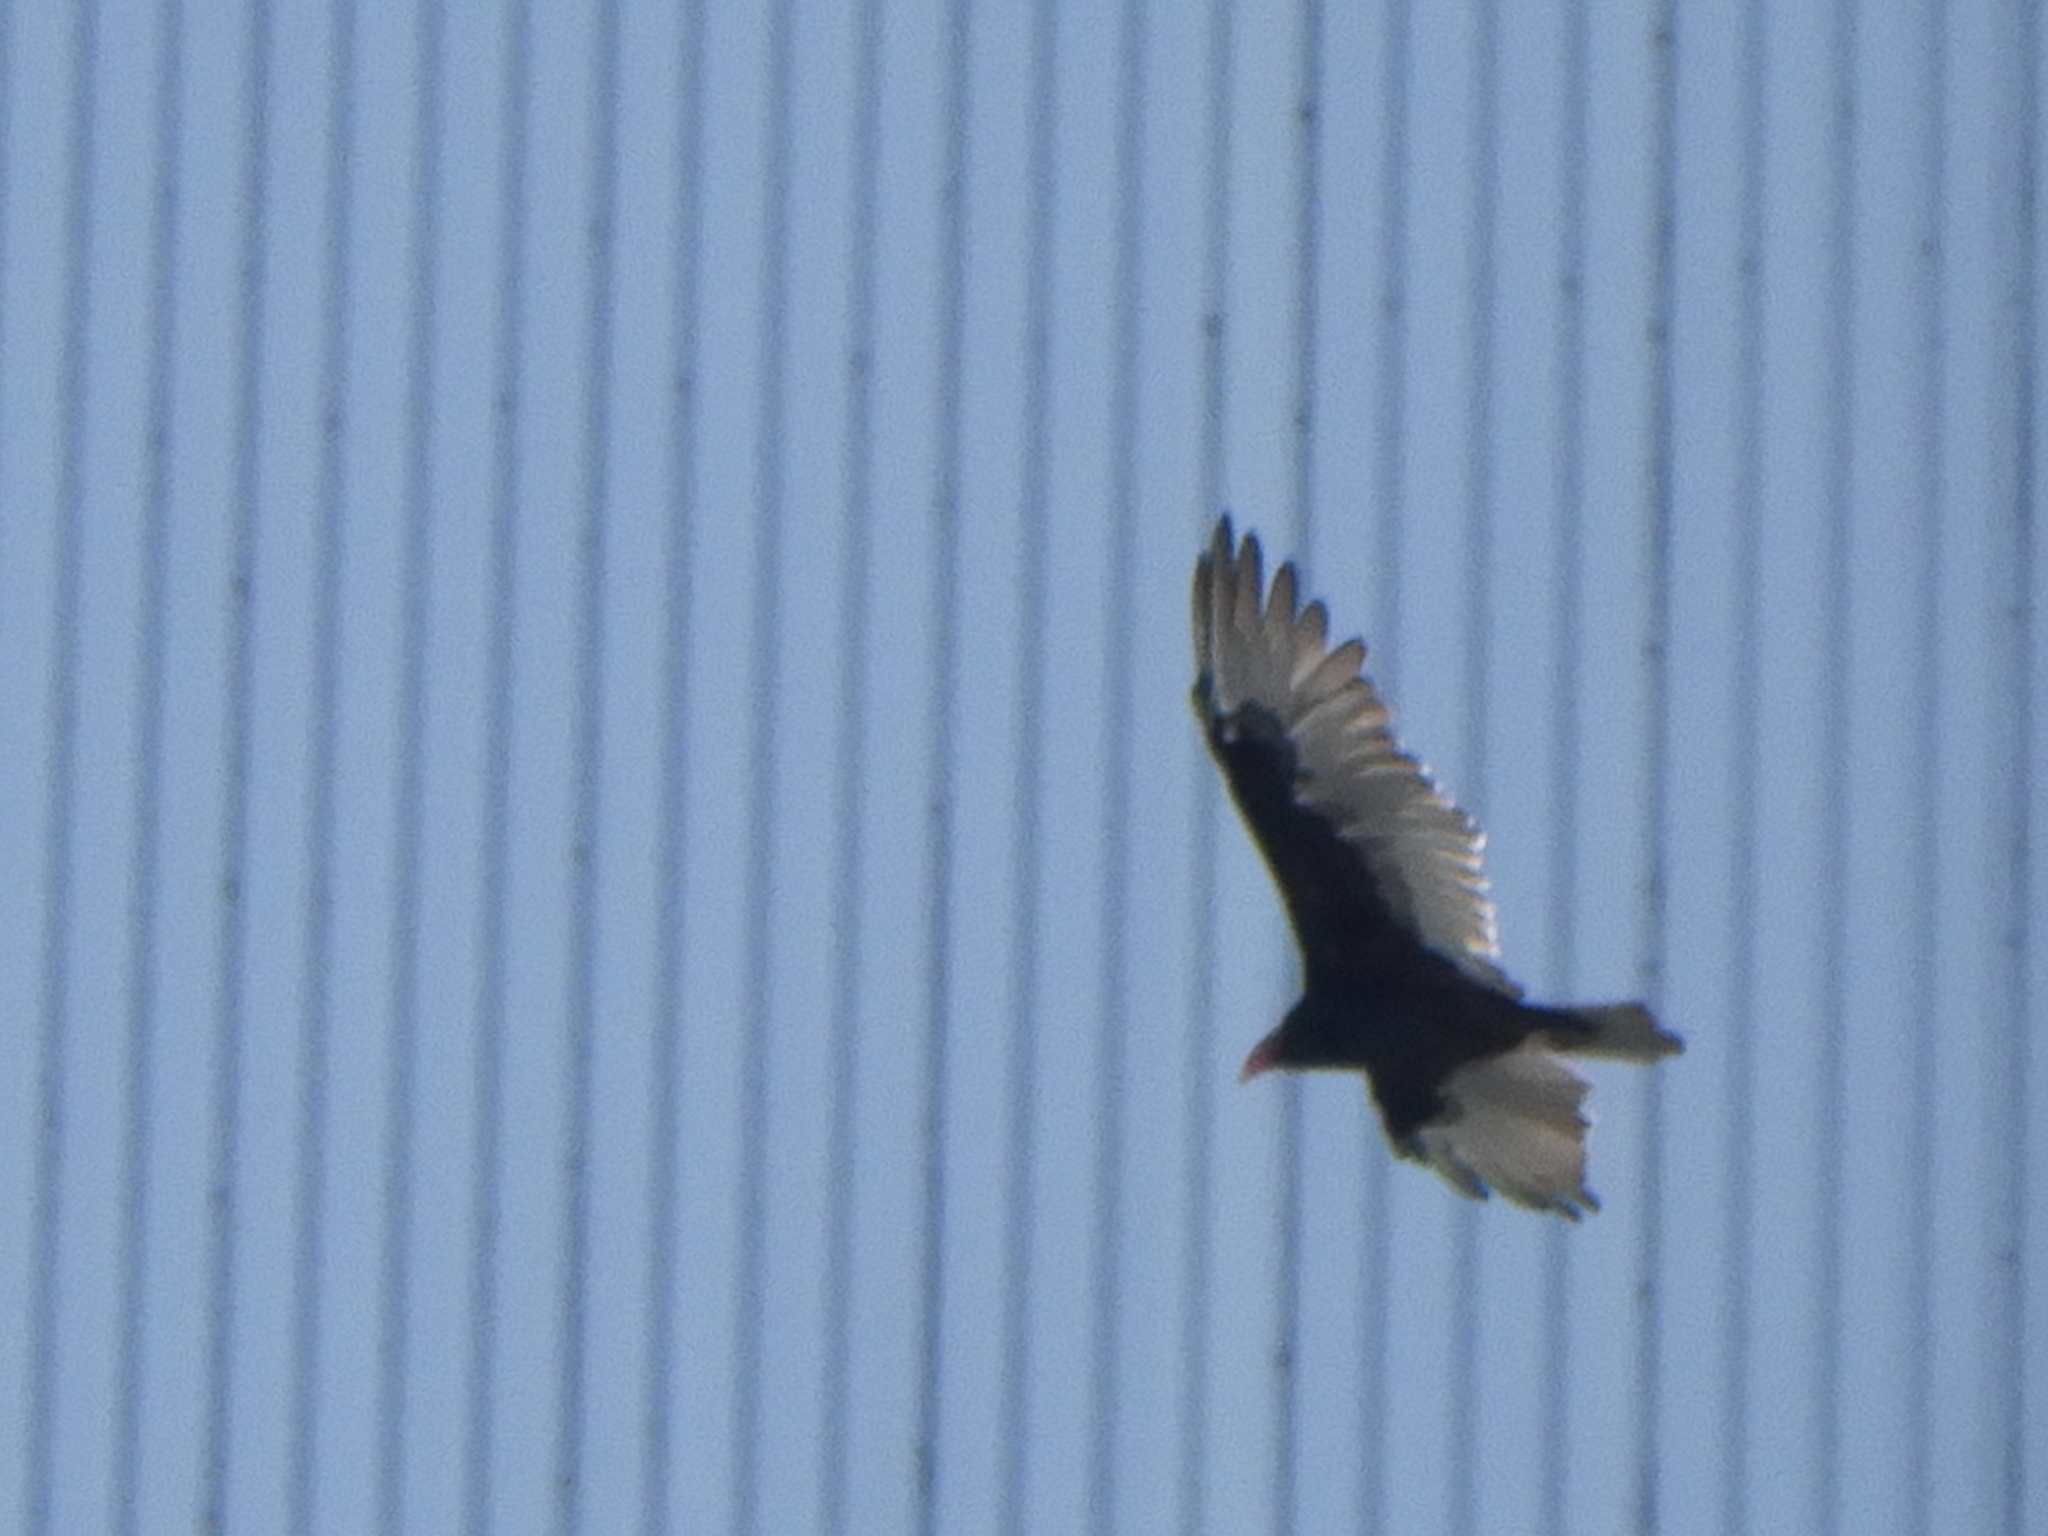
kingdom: Animalia
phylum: Chordata
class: Aves
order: Accipitriformes
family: Cathartidae
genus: Cathartes
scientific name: Cathartes aura
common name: Turkey vulture
